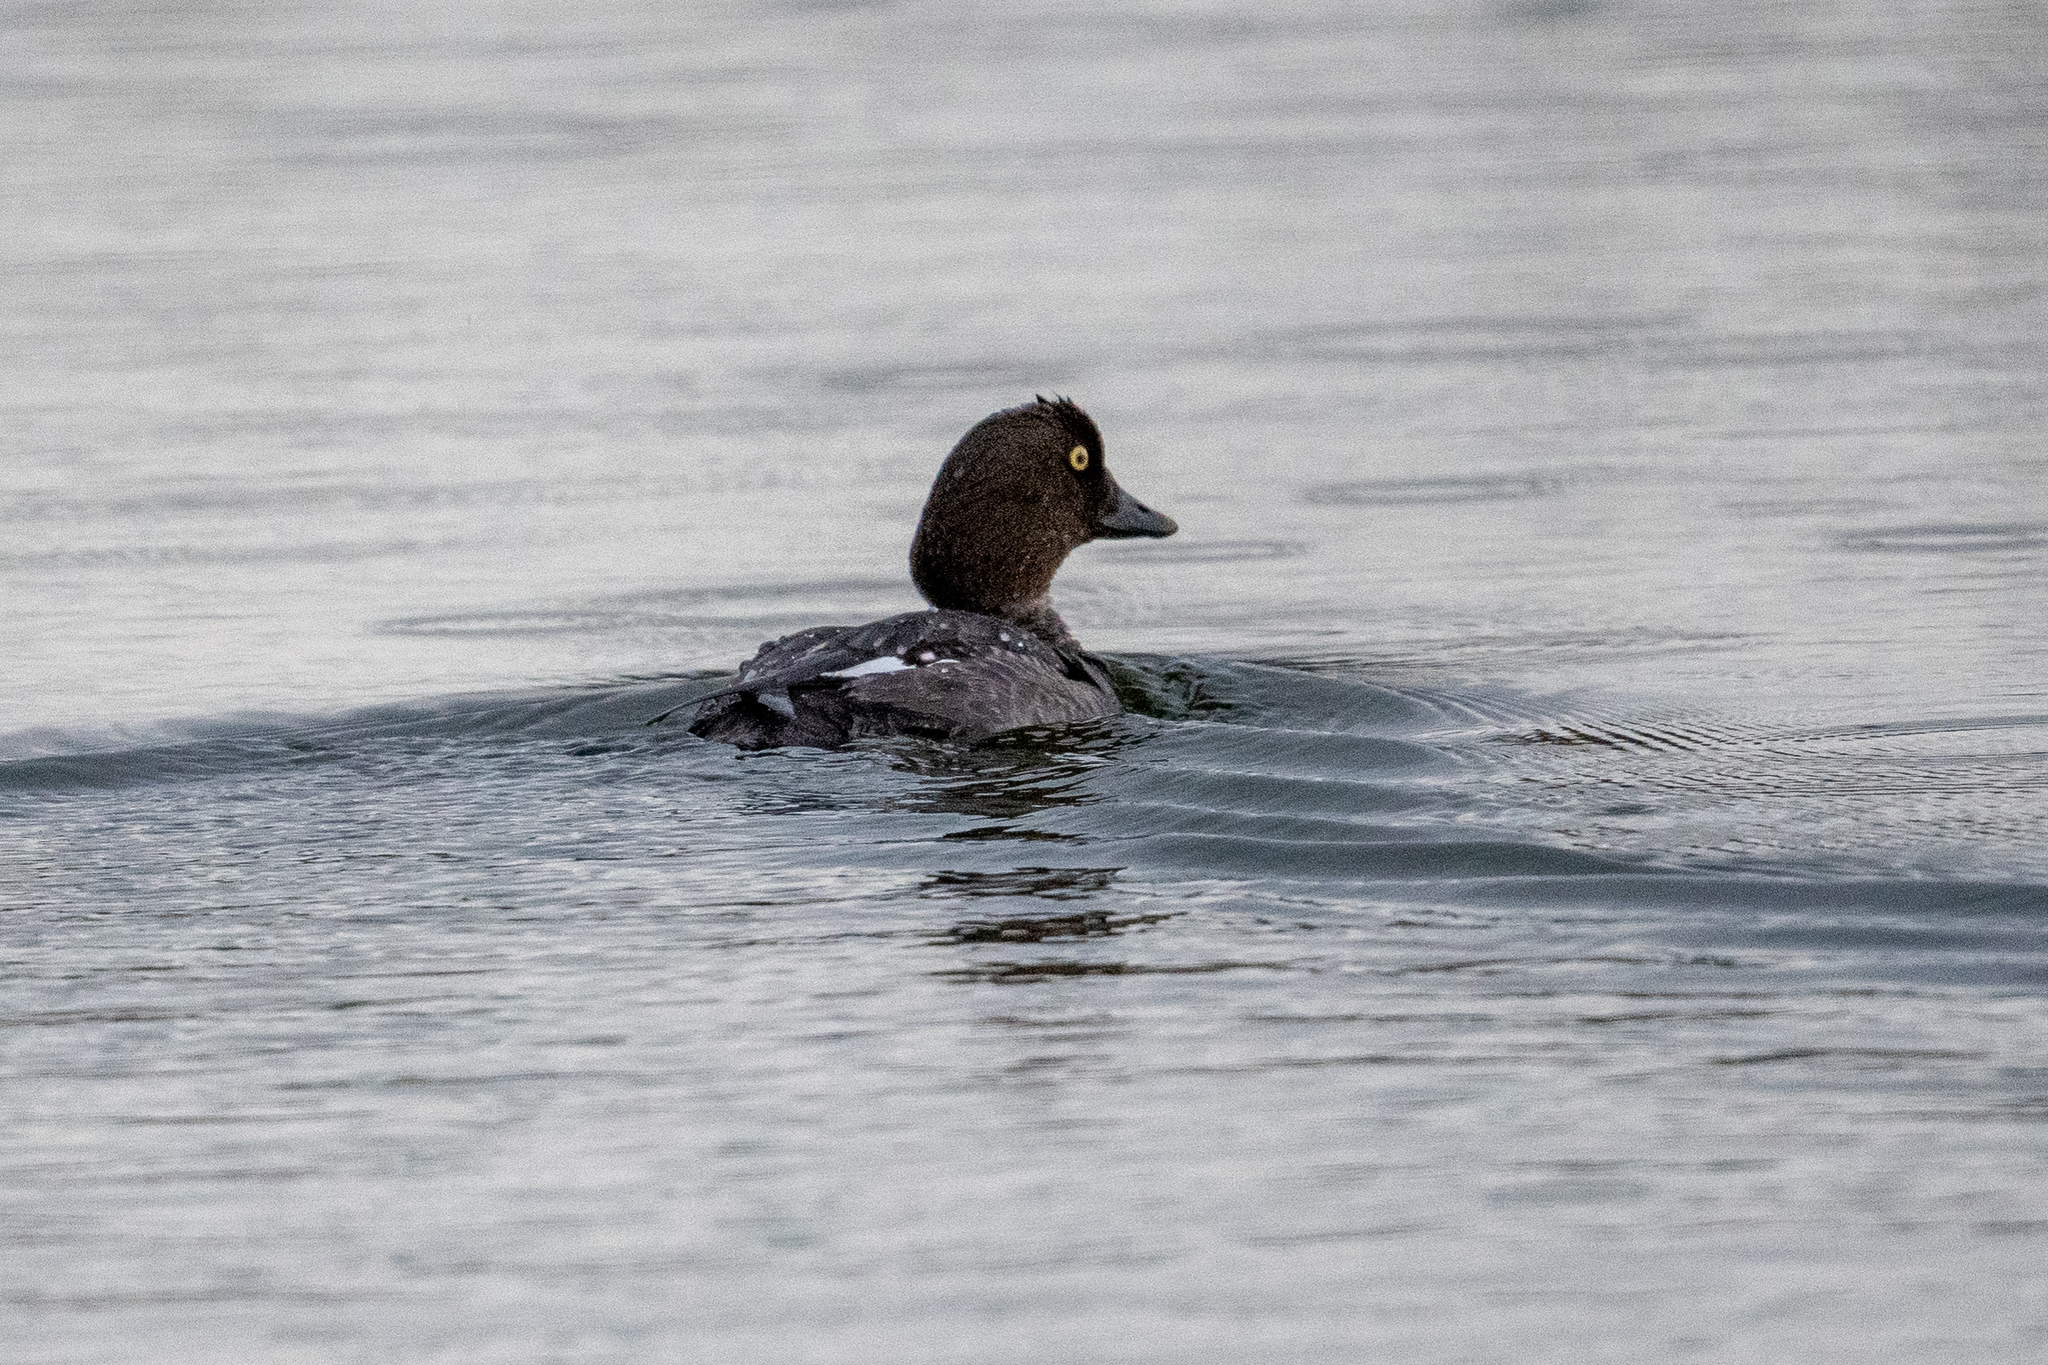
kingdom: Animalia
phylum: Chordata
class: Aves
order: Anseriformes
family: Anatidae
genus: Bucephala
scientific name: Bucephala clangula
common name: Common goldeneye
